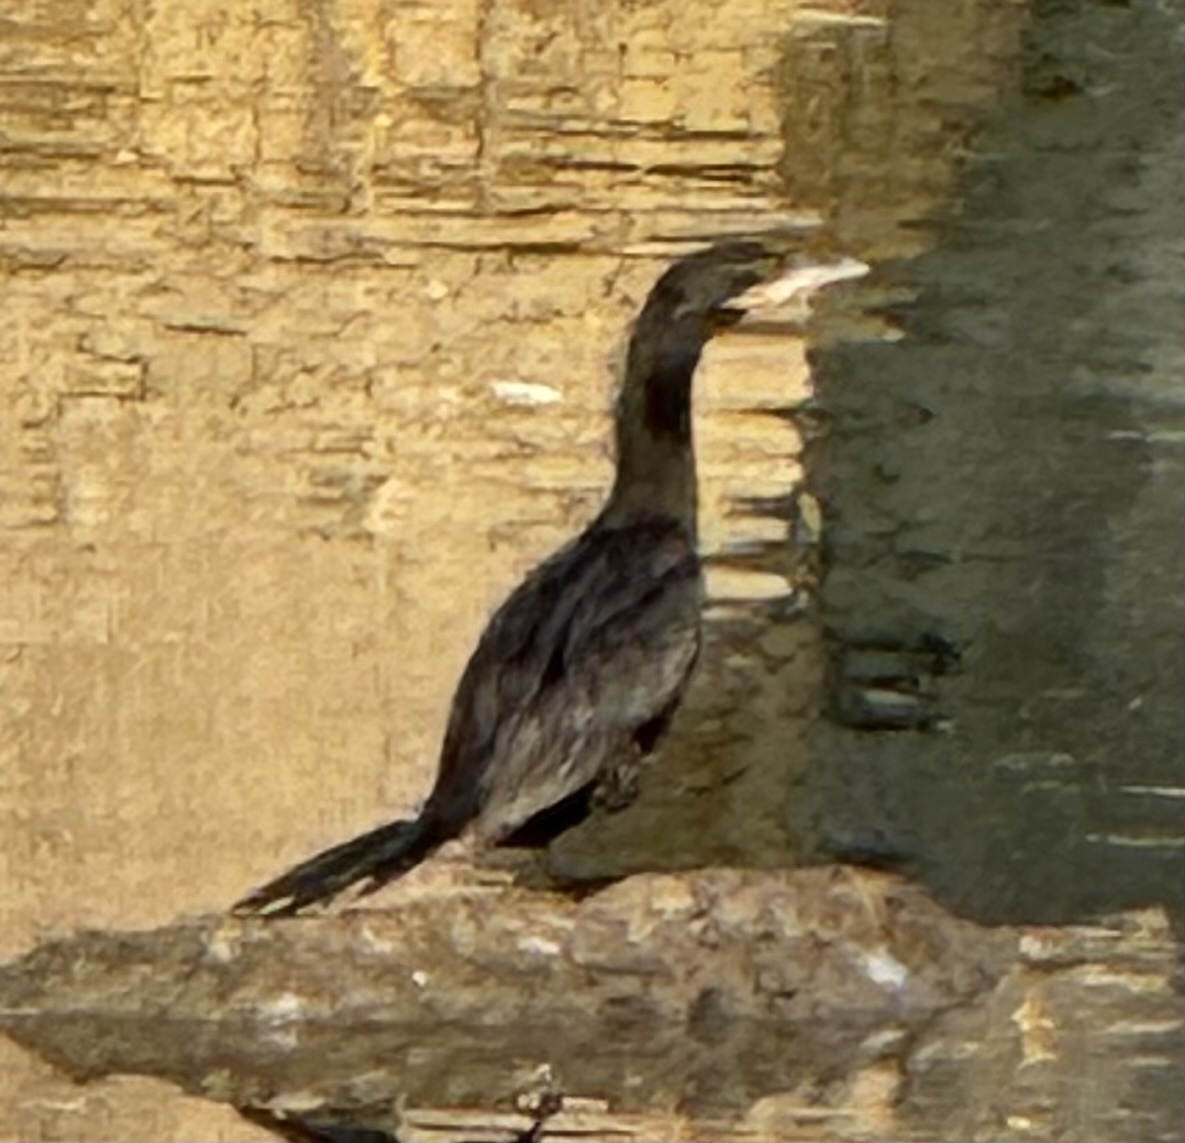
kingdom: Animalia
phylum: Chordata
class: Aves
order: Suliformes
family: Phalacrocoracidae
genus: Phalacrocorax
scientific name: Phalacrocorax brasilianus
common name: Neotropic cormorant
